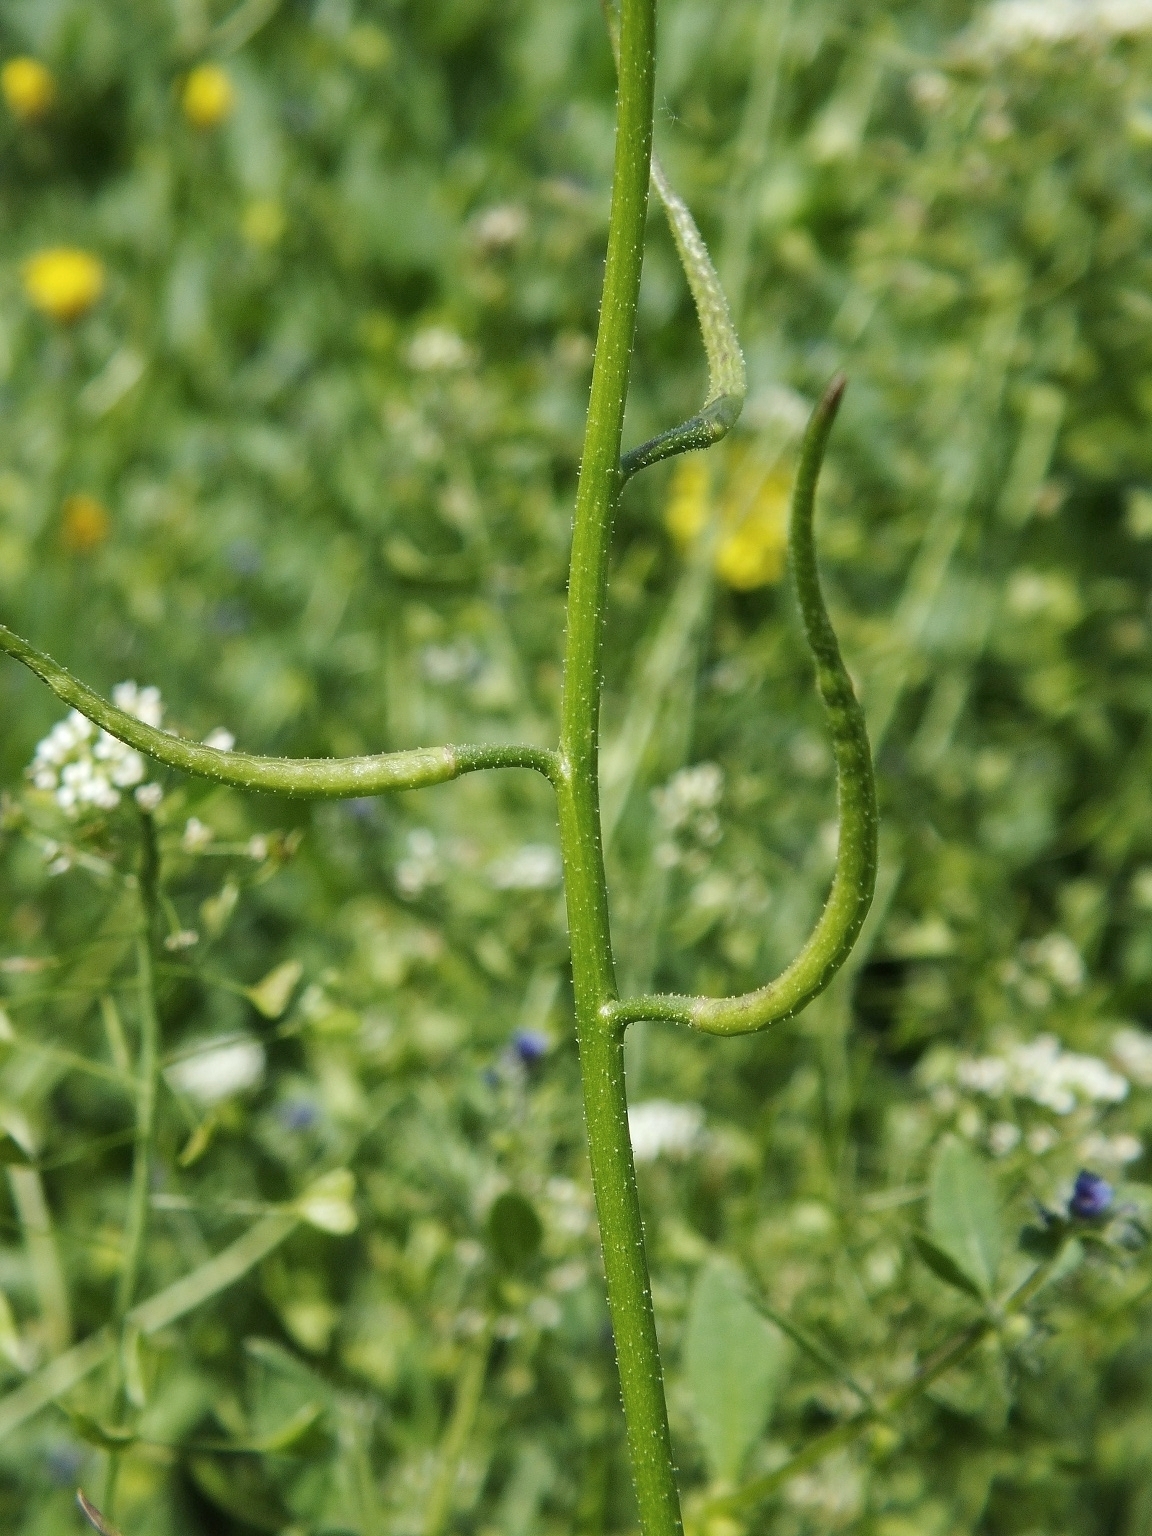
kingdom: Plantae
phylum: Tracheophyta
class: Magnoliopsida
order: Brassicales
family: Brassicaceae
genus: Chorispora
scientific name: Chorispora tenella
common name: Crossflower
